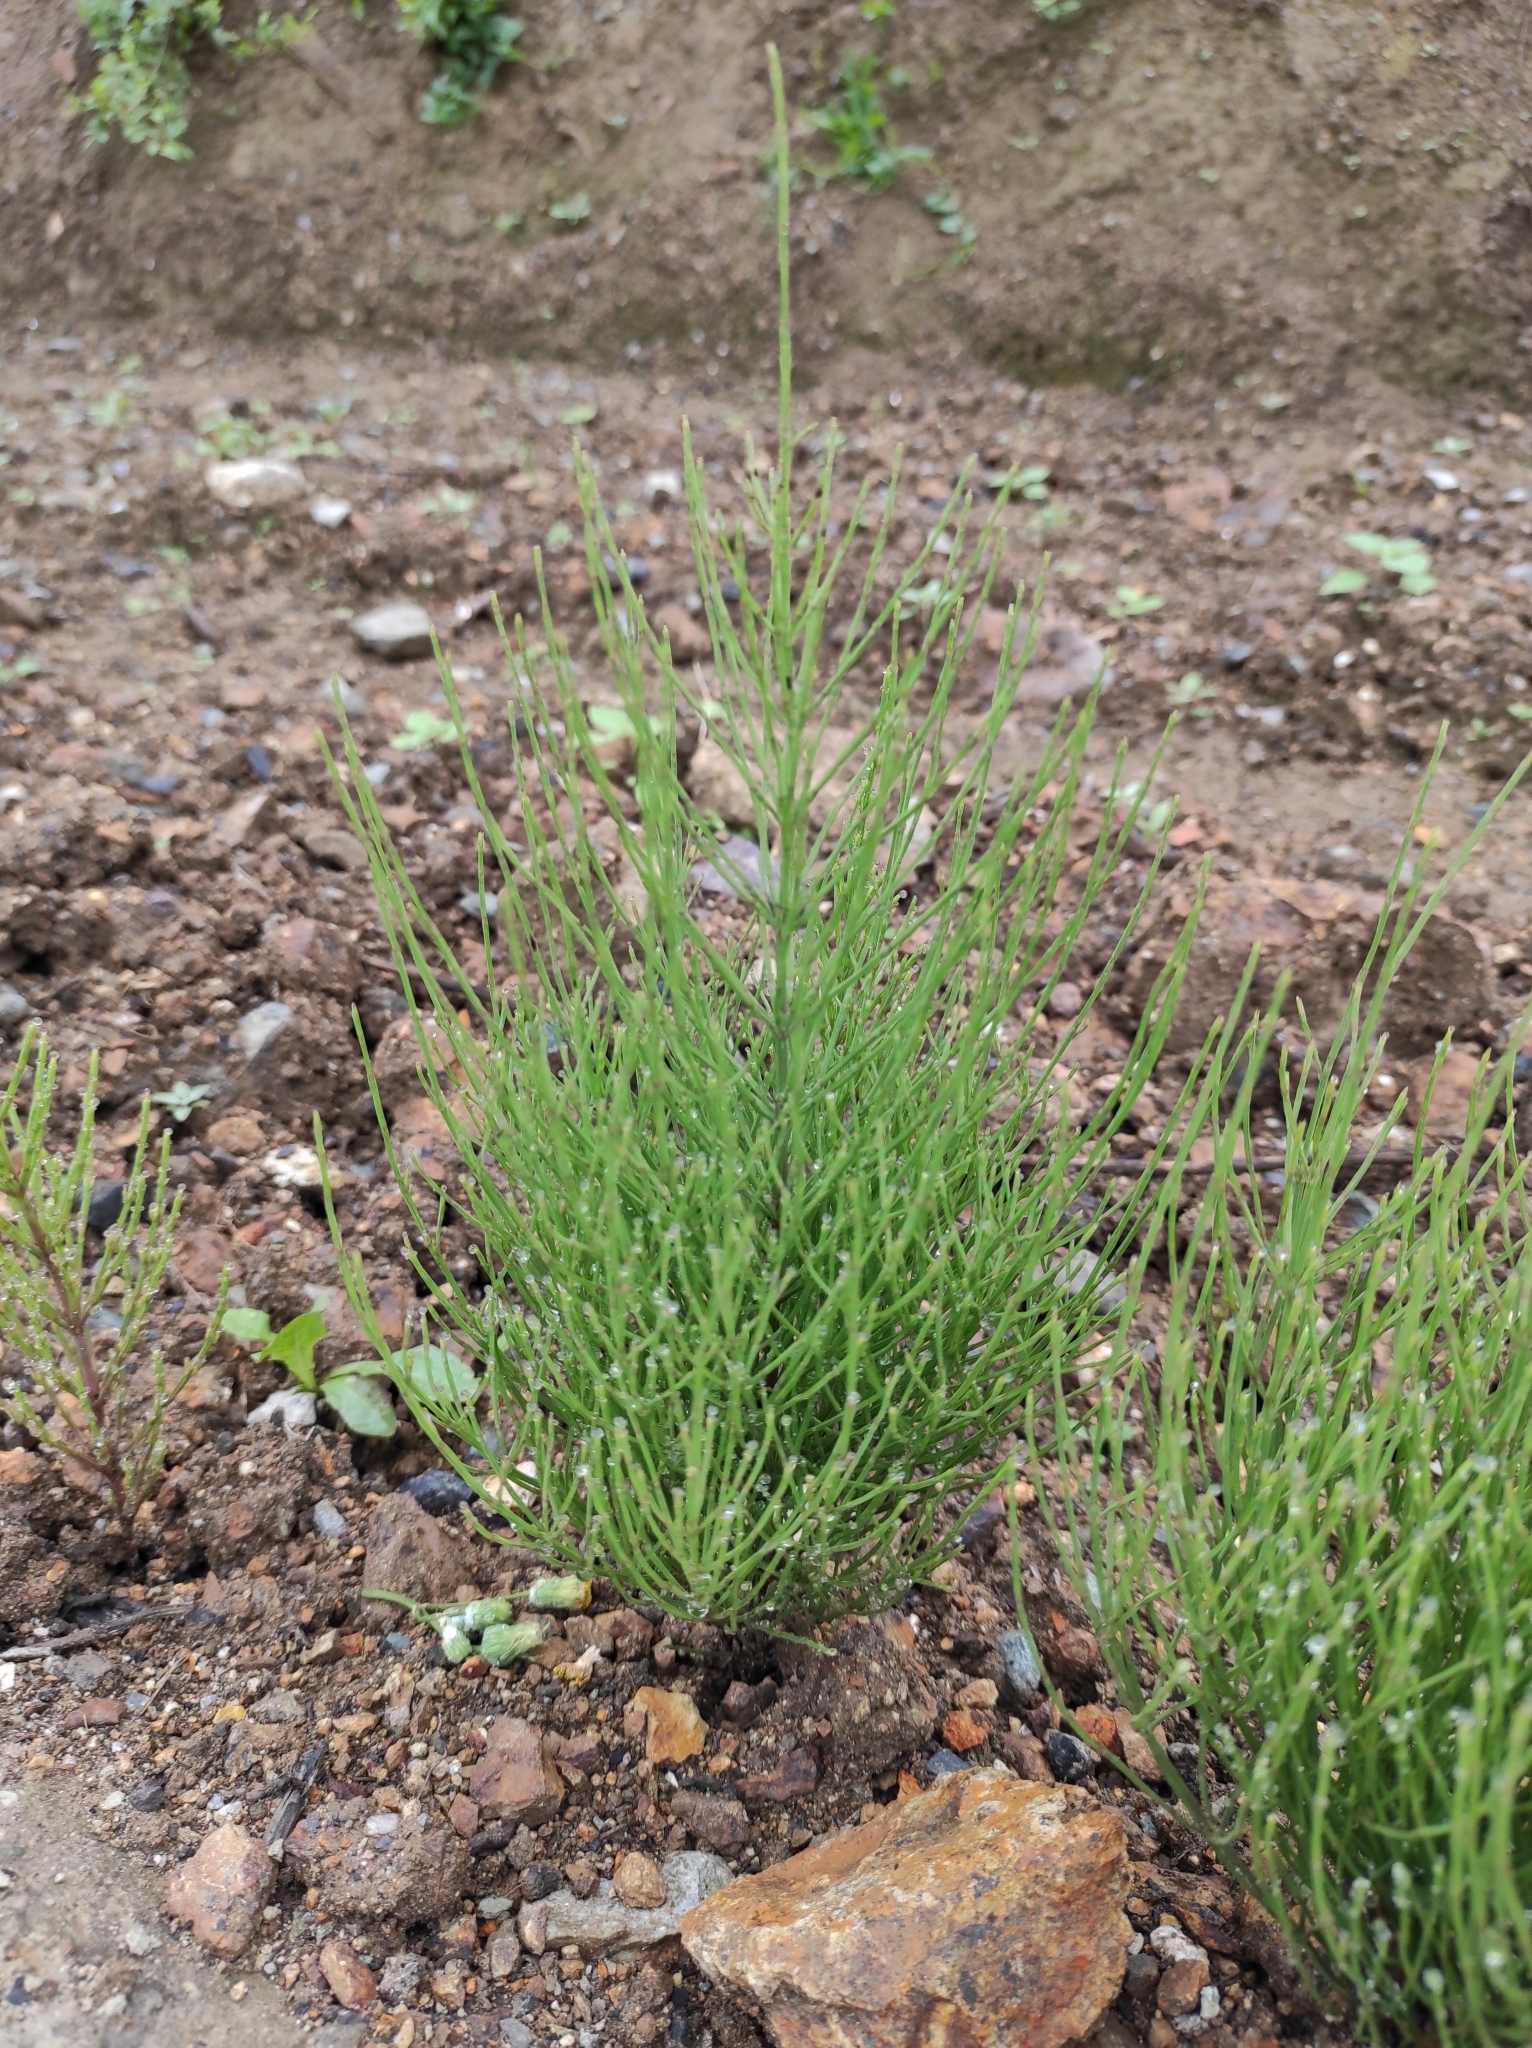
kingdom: Plantae
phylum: Tracheophyta
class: Polypodiopsida
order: Equisetales
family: Equisetaceae
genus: Equisetum
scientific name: Equisetum arvense
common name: Field horsetail
